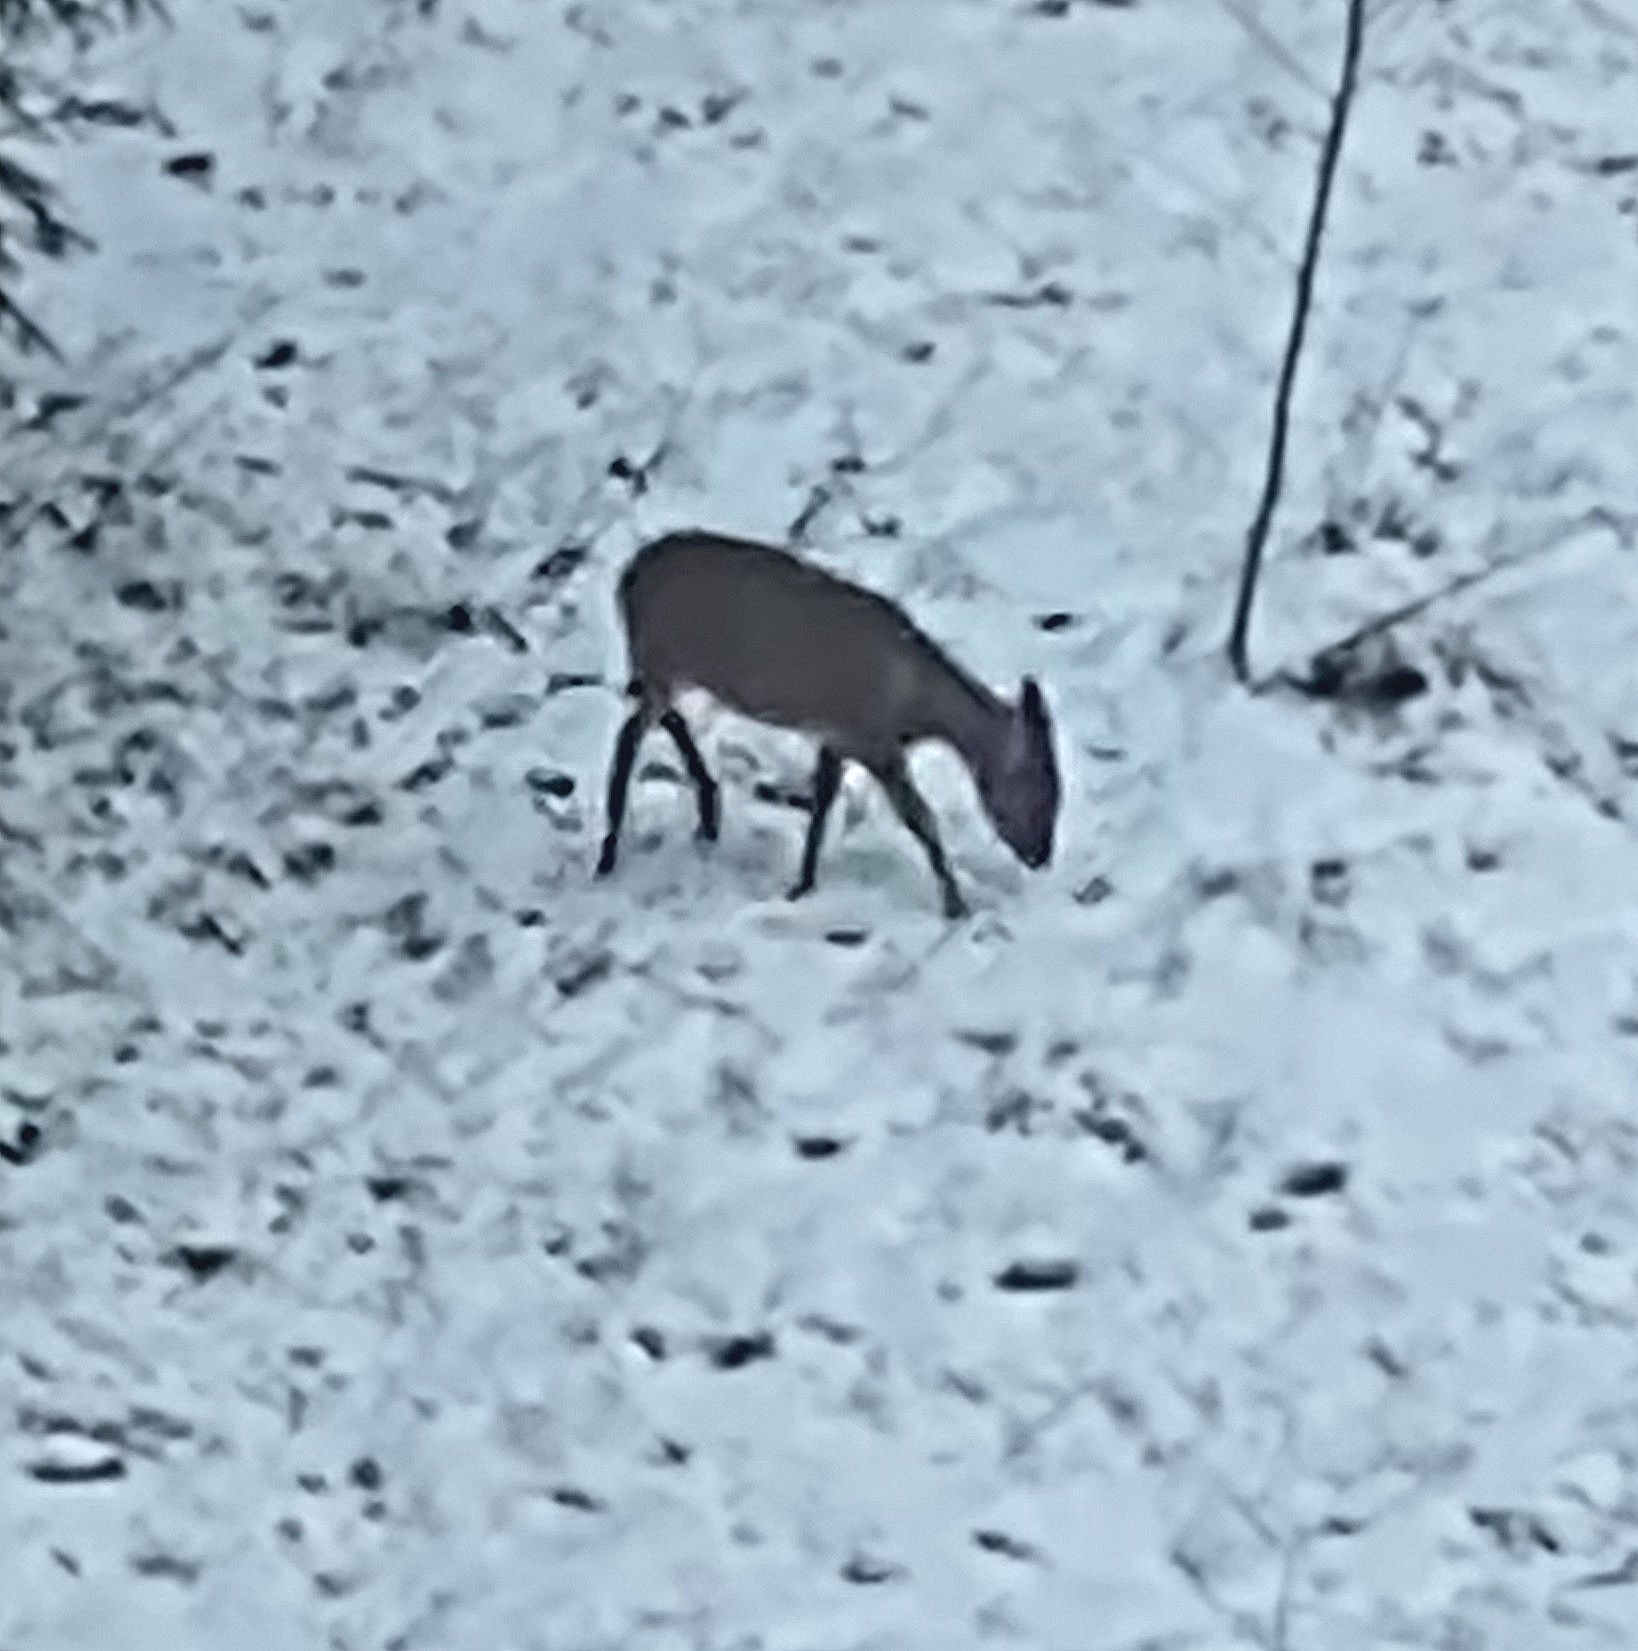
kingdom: Animalia
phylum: Chordata
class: Mammalia
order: Artiodactyla
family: Cervidae
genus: Capreolus
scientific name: Capreolus capreolus
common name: Western roe deer
